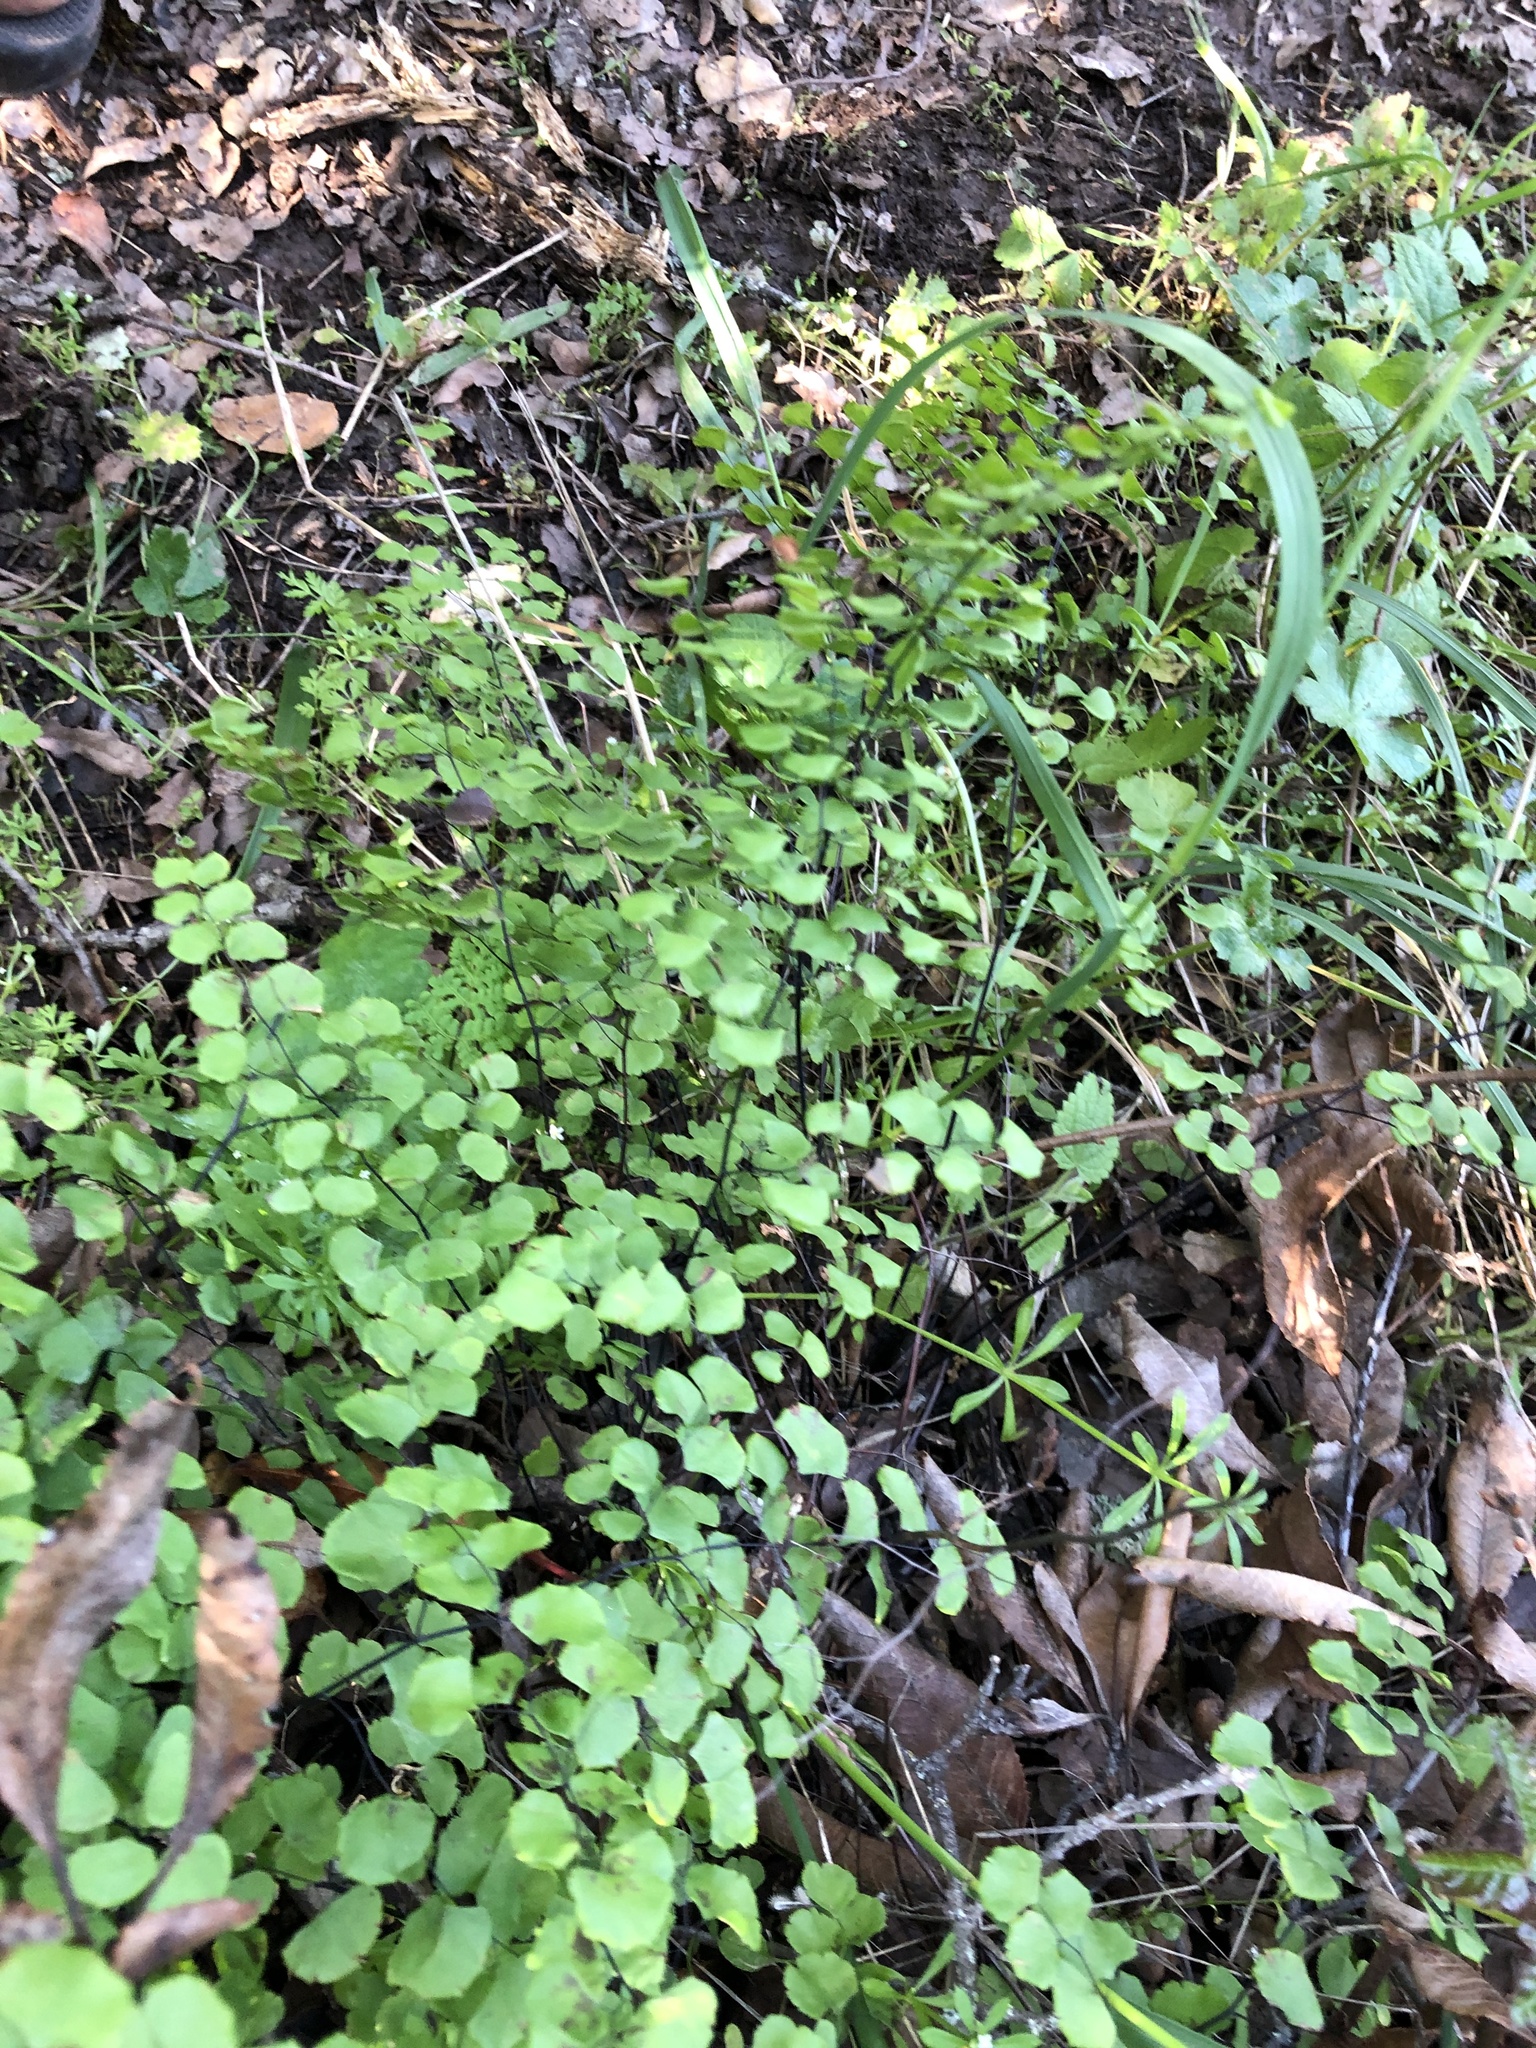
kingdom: Plantae
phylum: Tracheophyta
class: Polypodiopsida
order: Polypodiales
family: Pteridaceae
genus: Adiantum
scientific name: Adiantum jordanii
